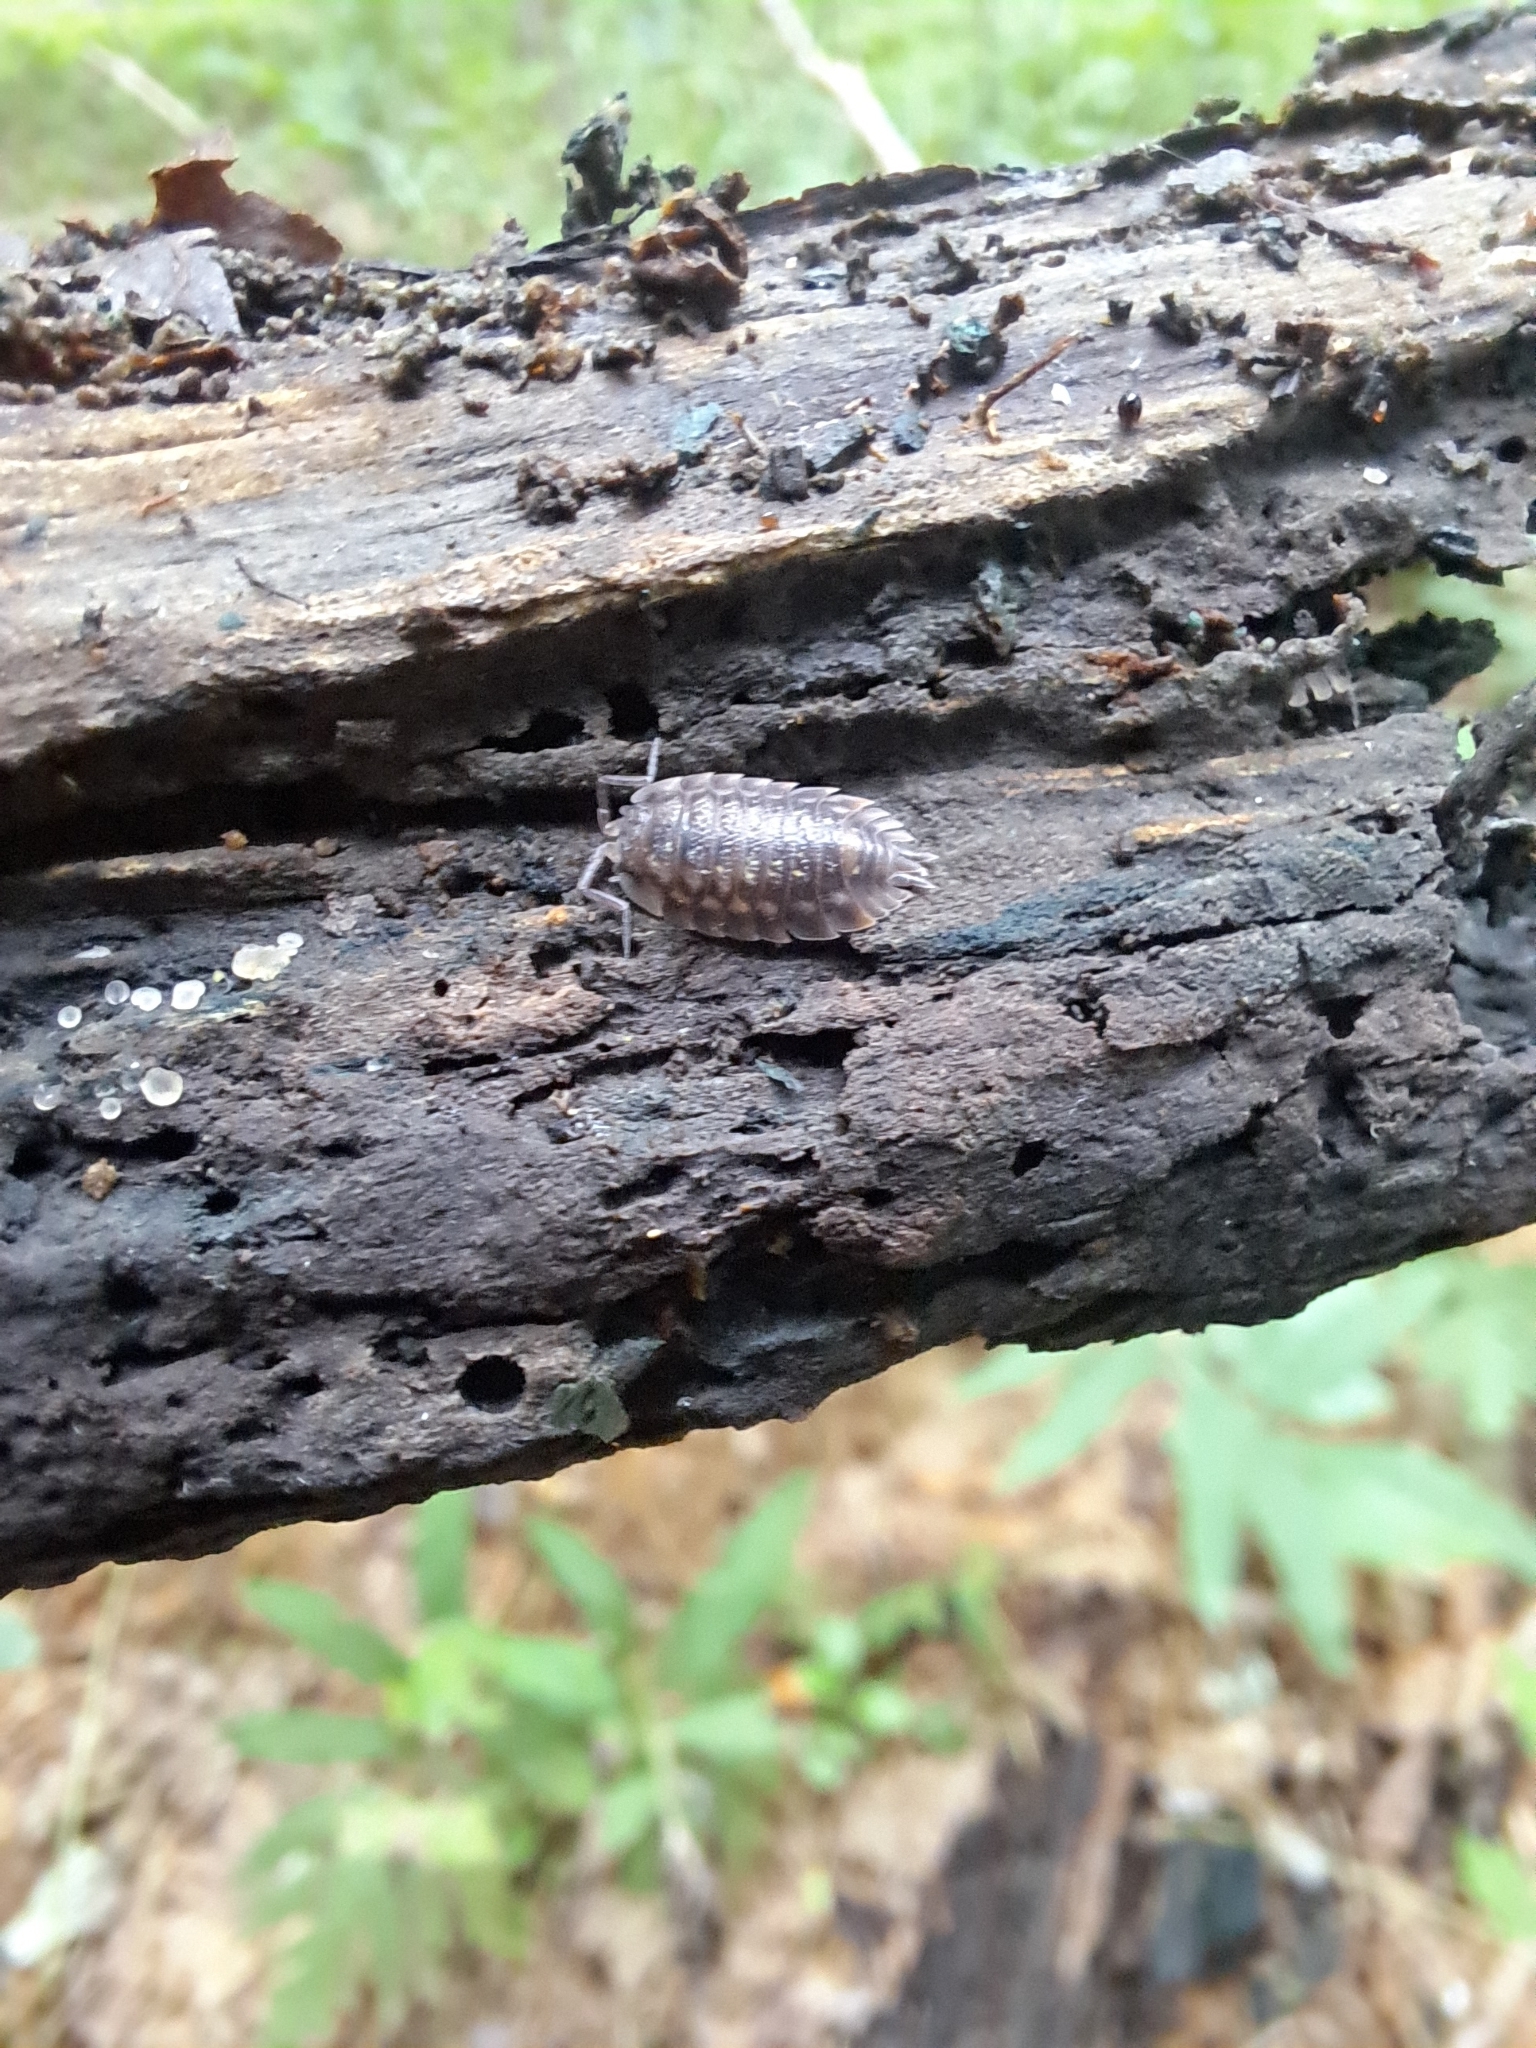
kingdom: Animalia
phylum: Arthropoda
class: Malacostraca
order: Isopoda
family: Oniscidae
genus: Oniscus
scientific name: Oniscus asellus
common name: Common shiny woodlouse
